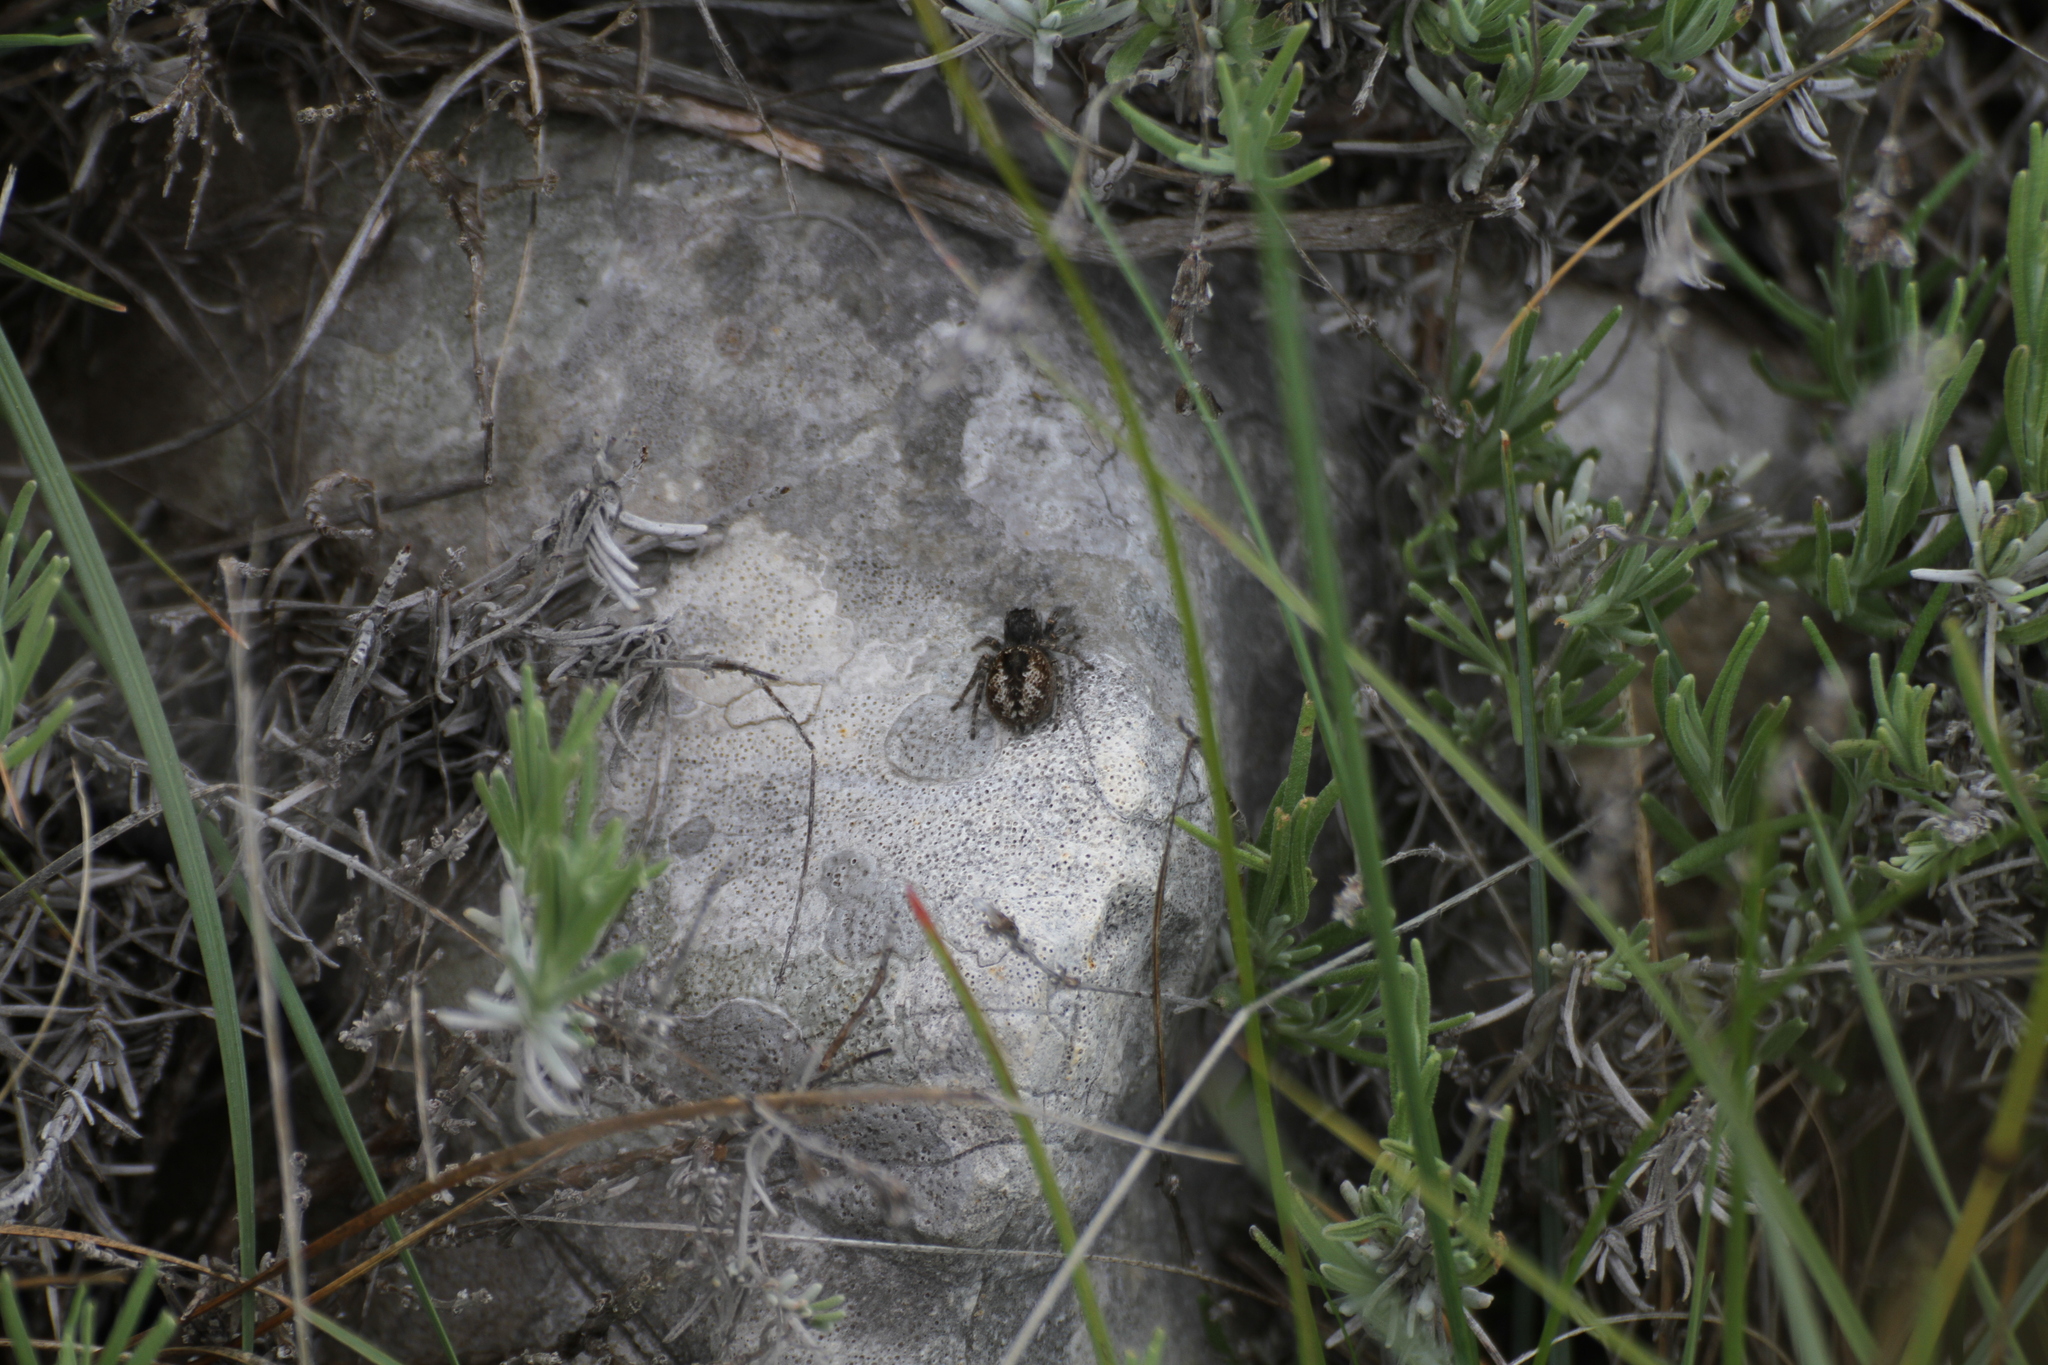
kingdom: Animalia
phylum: Arthropoda
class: Arachnida
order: Araneae
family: Salticidae
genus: Philaeus
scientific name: Philaeus chrysops
